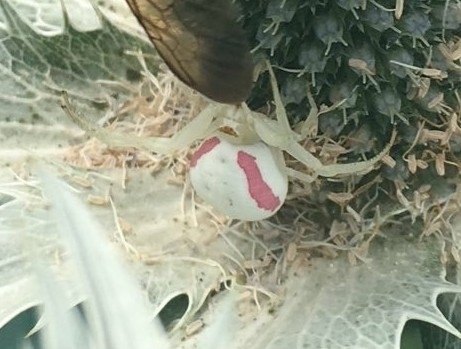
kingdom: Animalia
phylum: Arthropoda
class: Arachnida
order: Araneae
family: Thomisidae
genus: Misumena
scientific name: Misumena vatia
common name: Goldenrod crab spider
